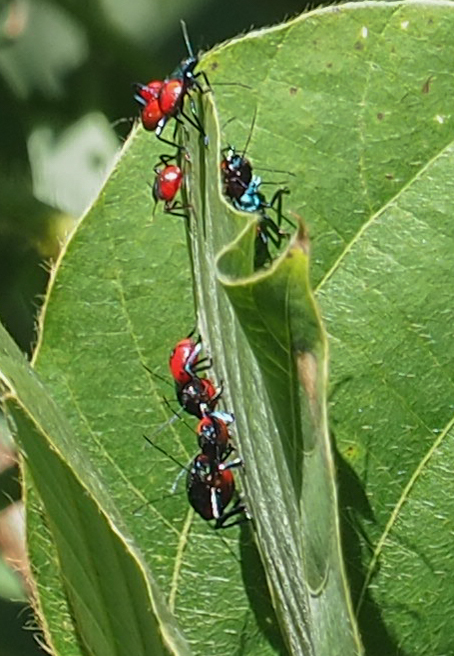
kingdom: Animalia
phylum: Arthropoda
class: Insecta
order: Hemiptera
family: Pentatomidae
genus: Euthyrhynchus
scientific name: Euthyrhynchus floridanus
